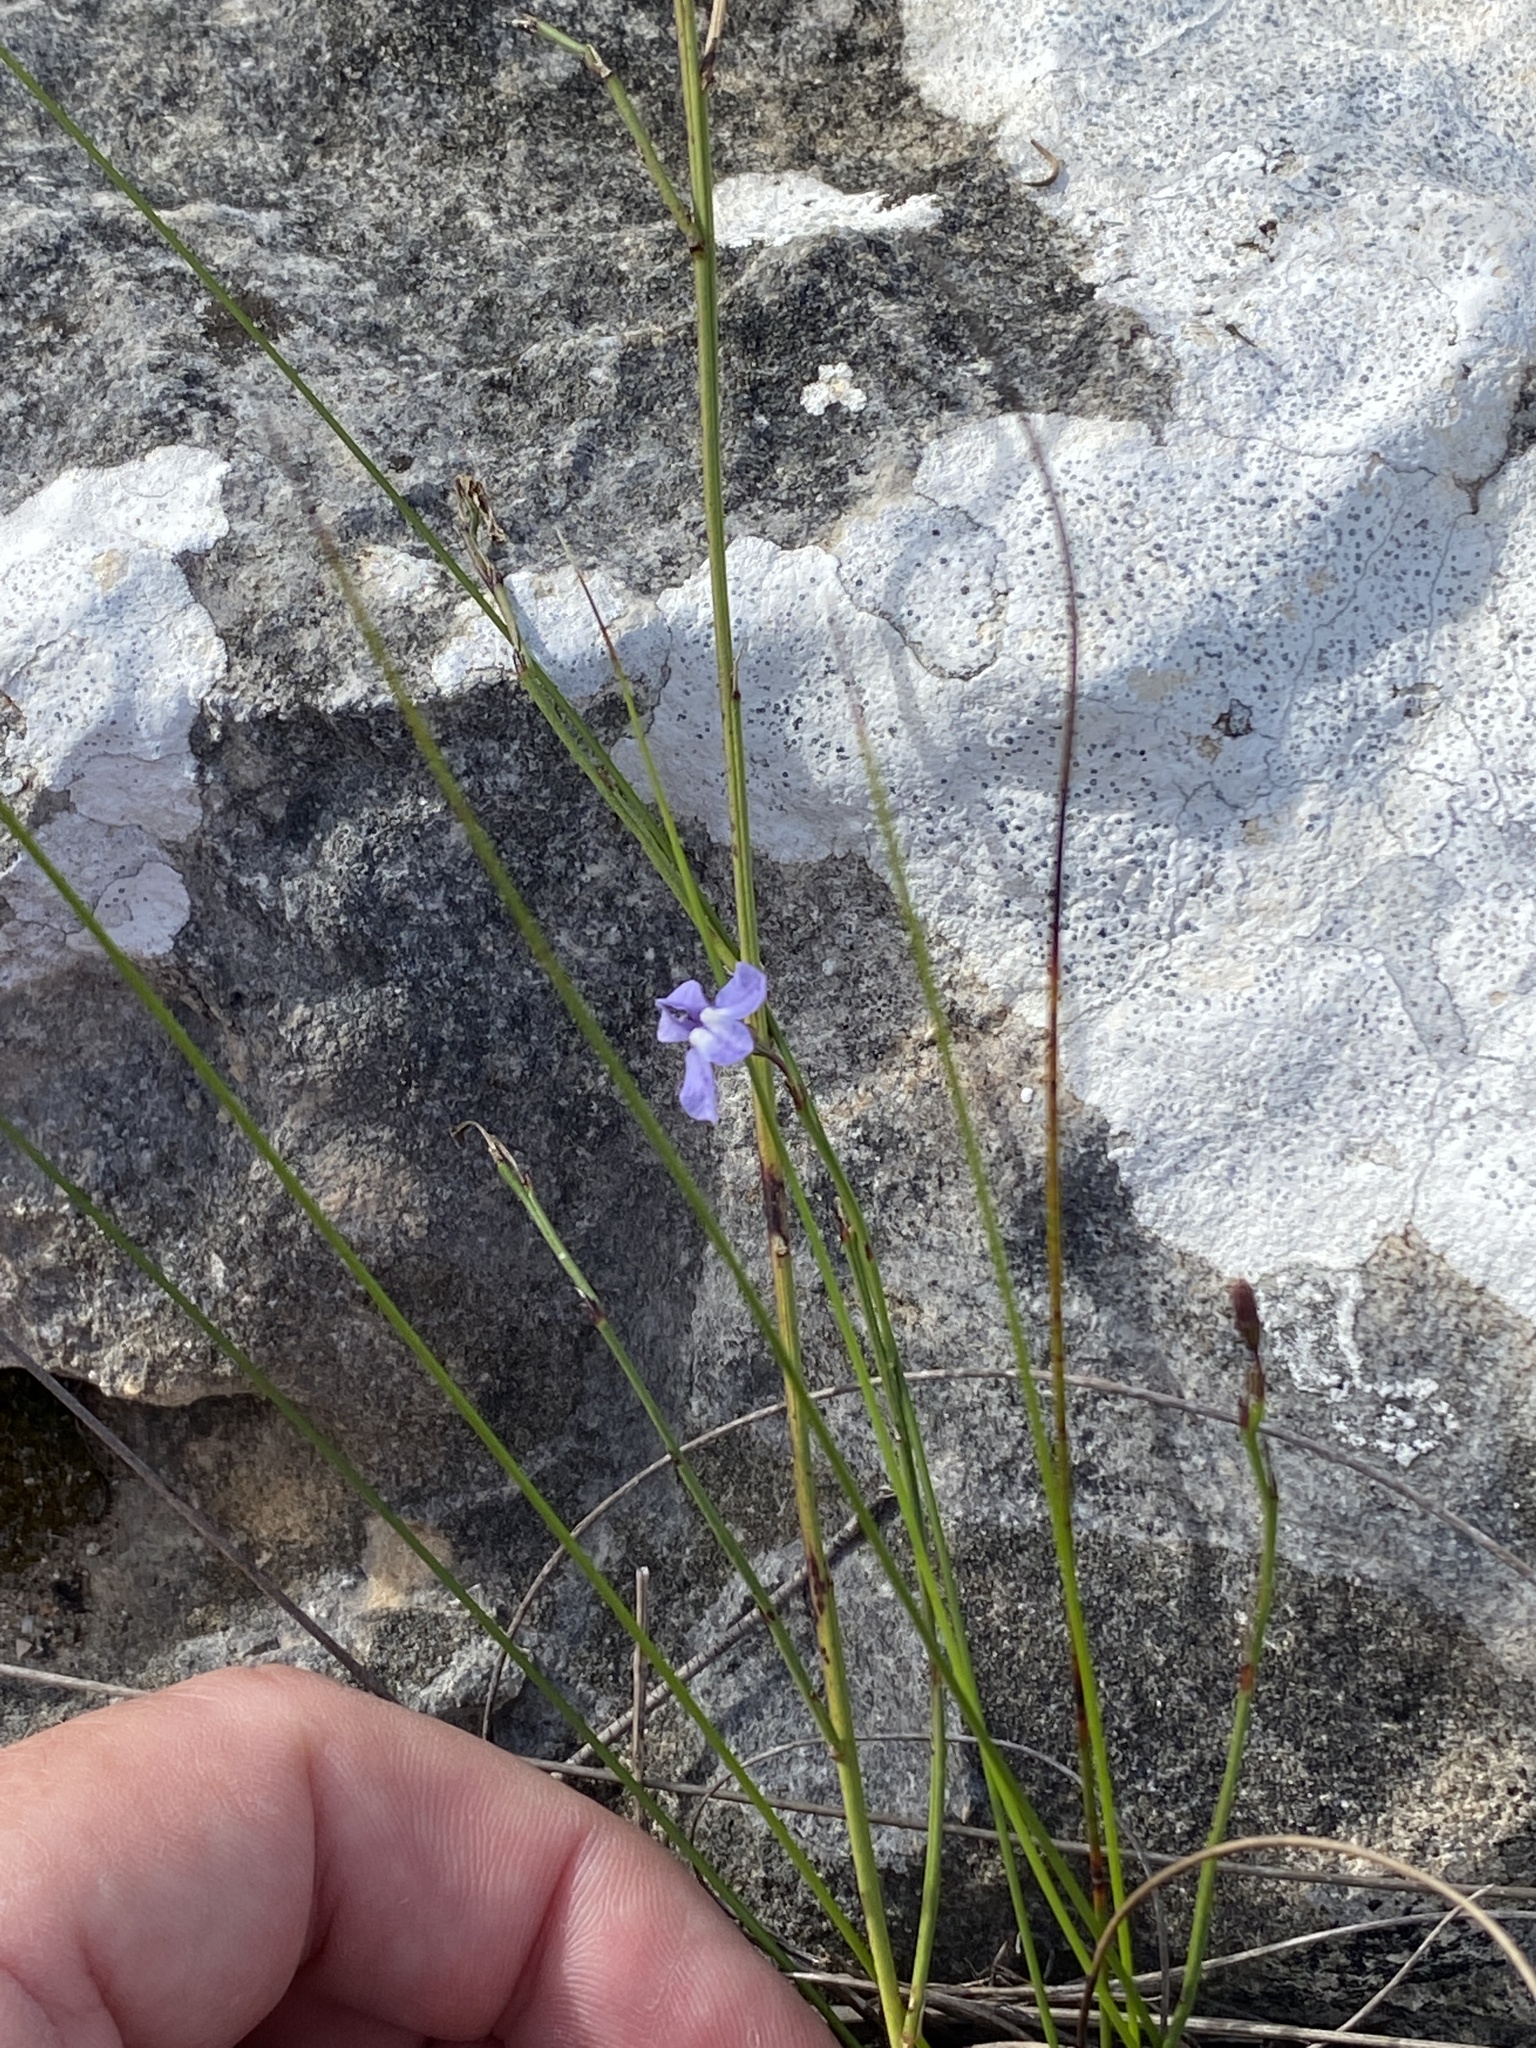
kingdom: Plantae
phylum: Tracheophyta
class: Magnoliopsida
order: Asterales
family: Campanulaceae
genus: Lobelia
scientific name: Lobelia capillifolia
